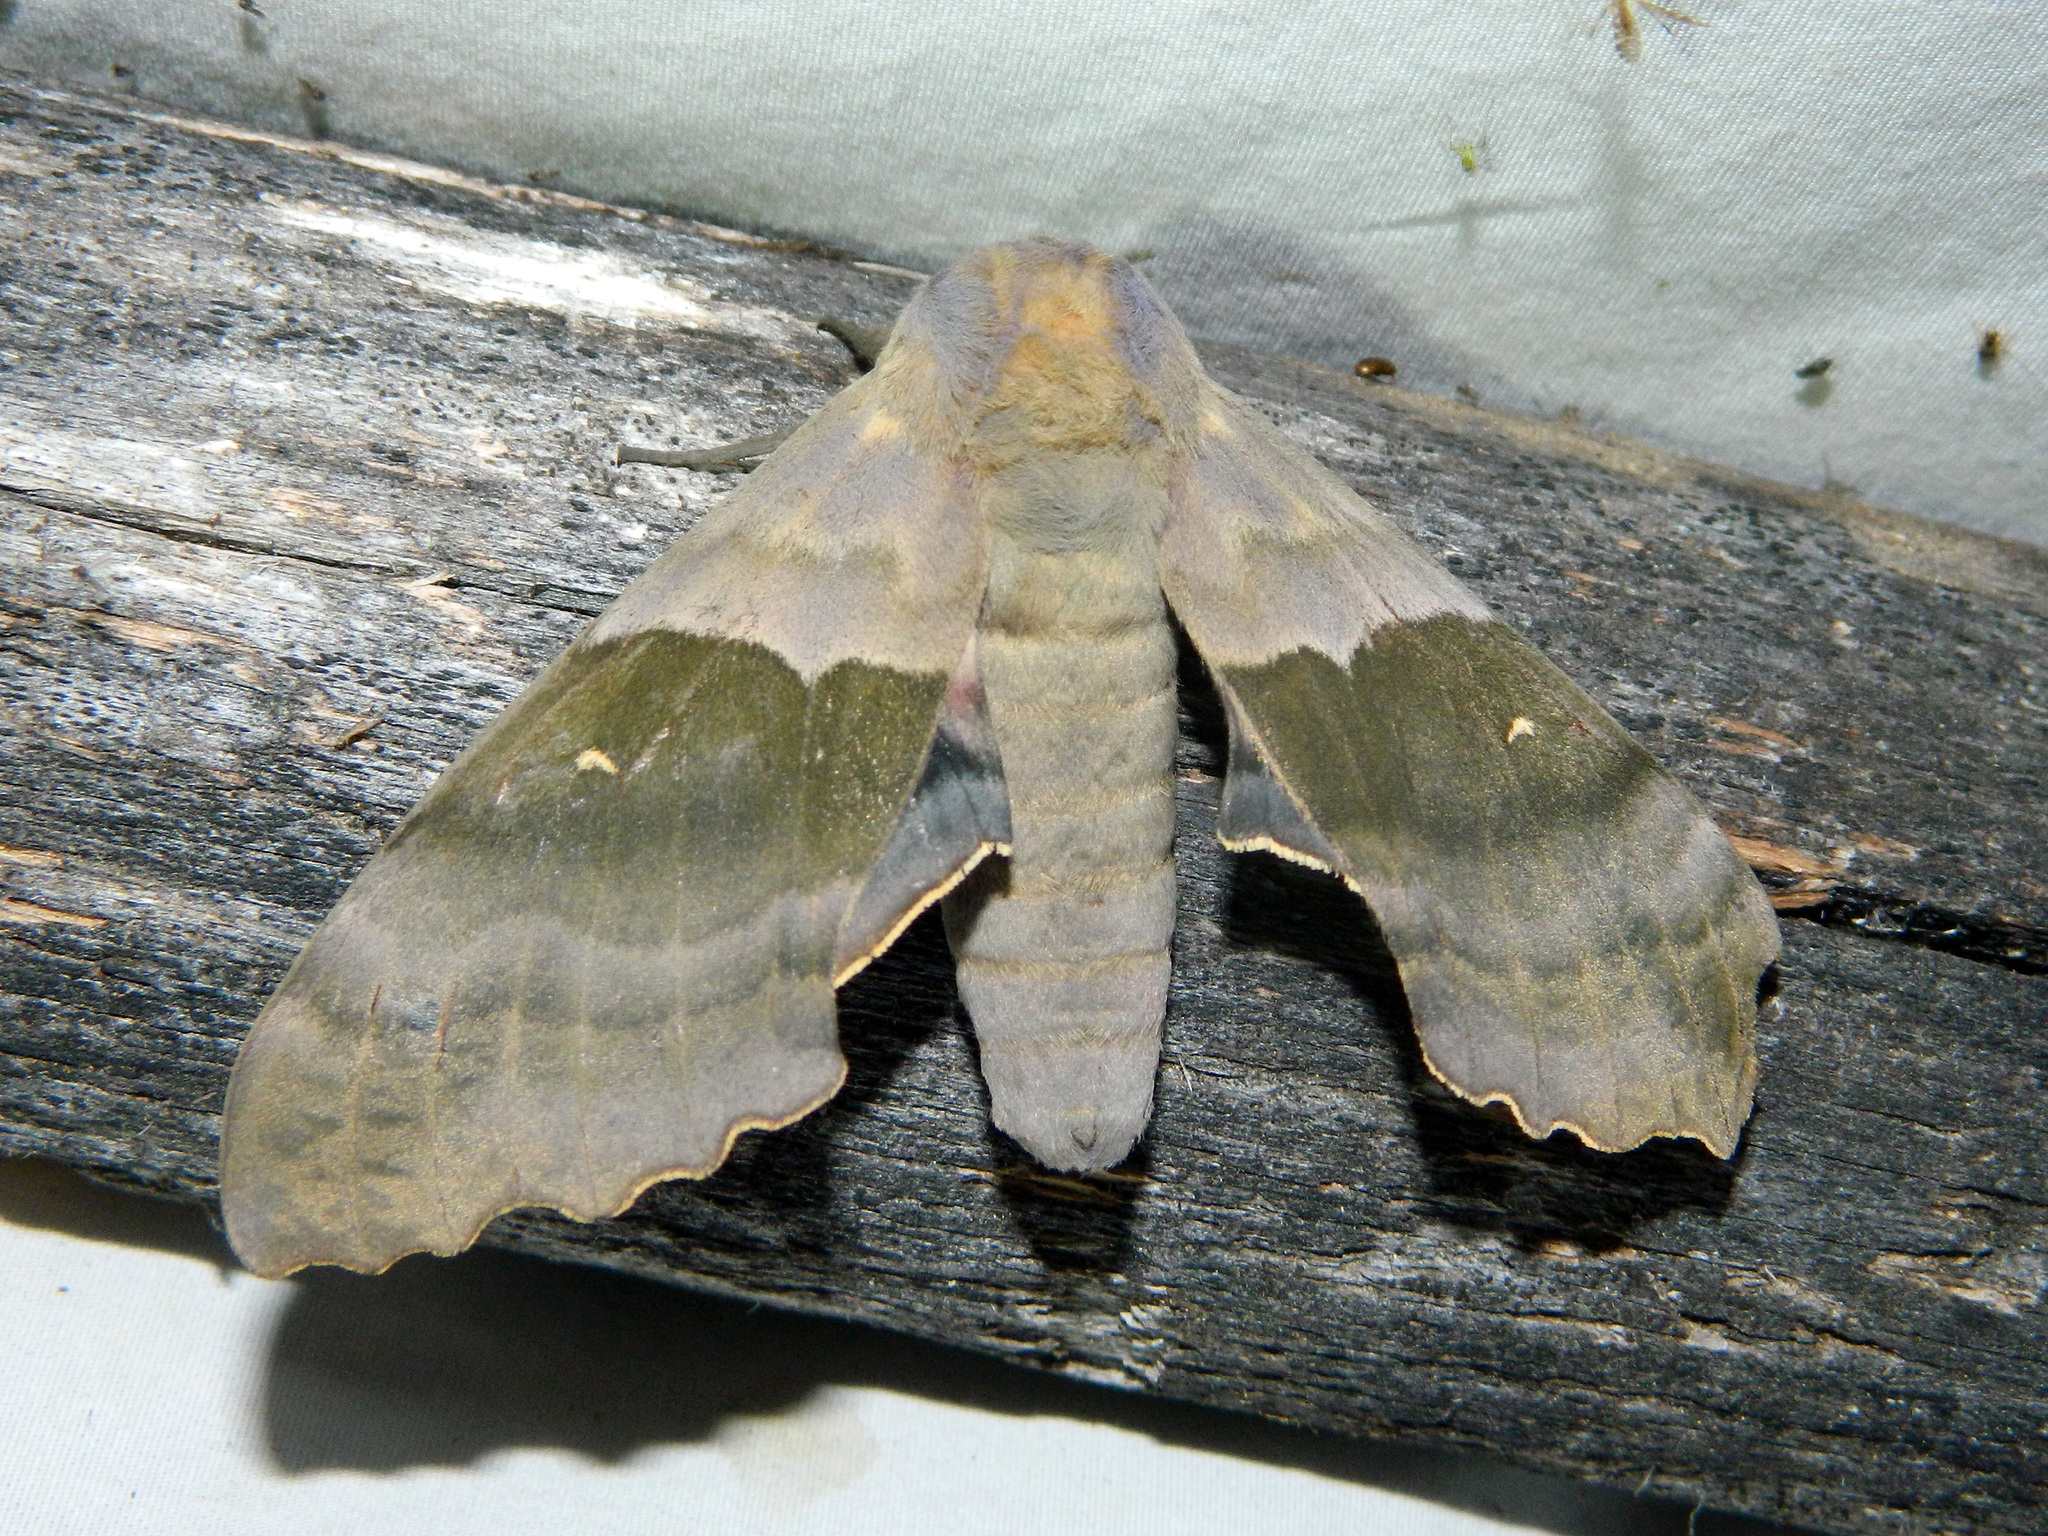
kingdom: Animalia
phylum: Arthropoda
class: Insecta
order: Lepidoptera
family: Sphingidae
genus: Pachysphinx
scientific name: Pachysphinx modesta
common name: Big poplar sphinx
